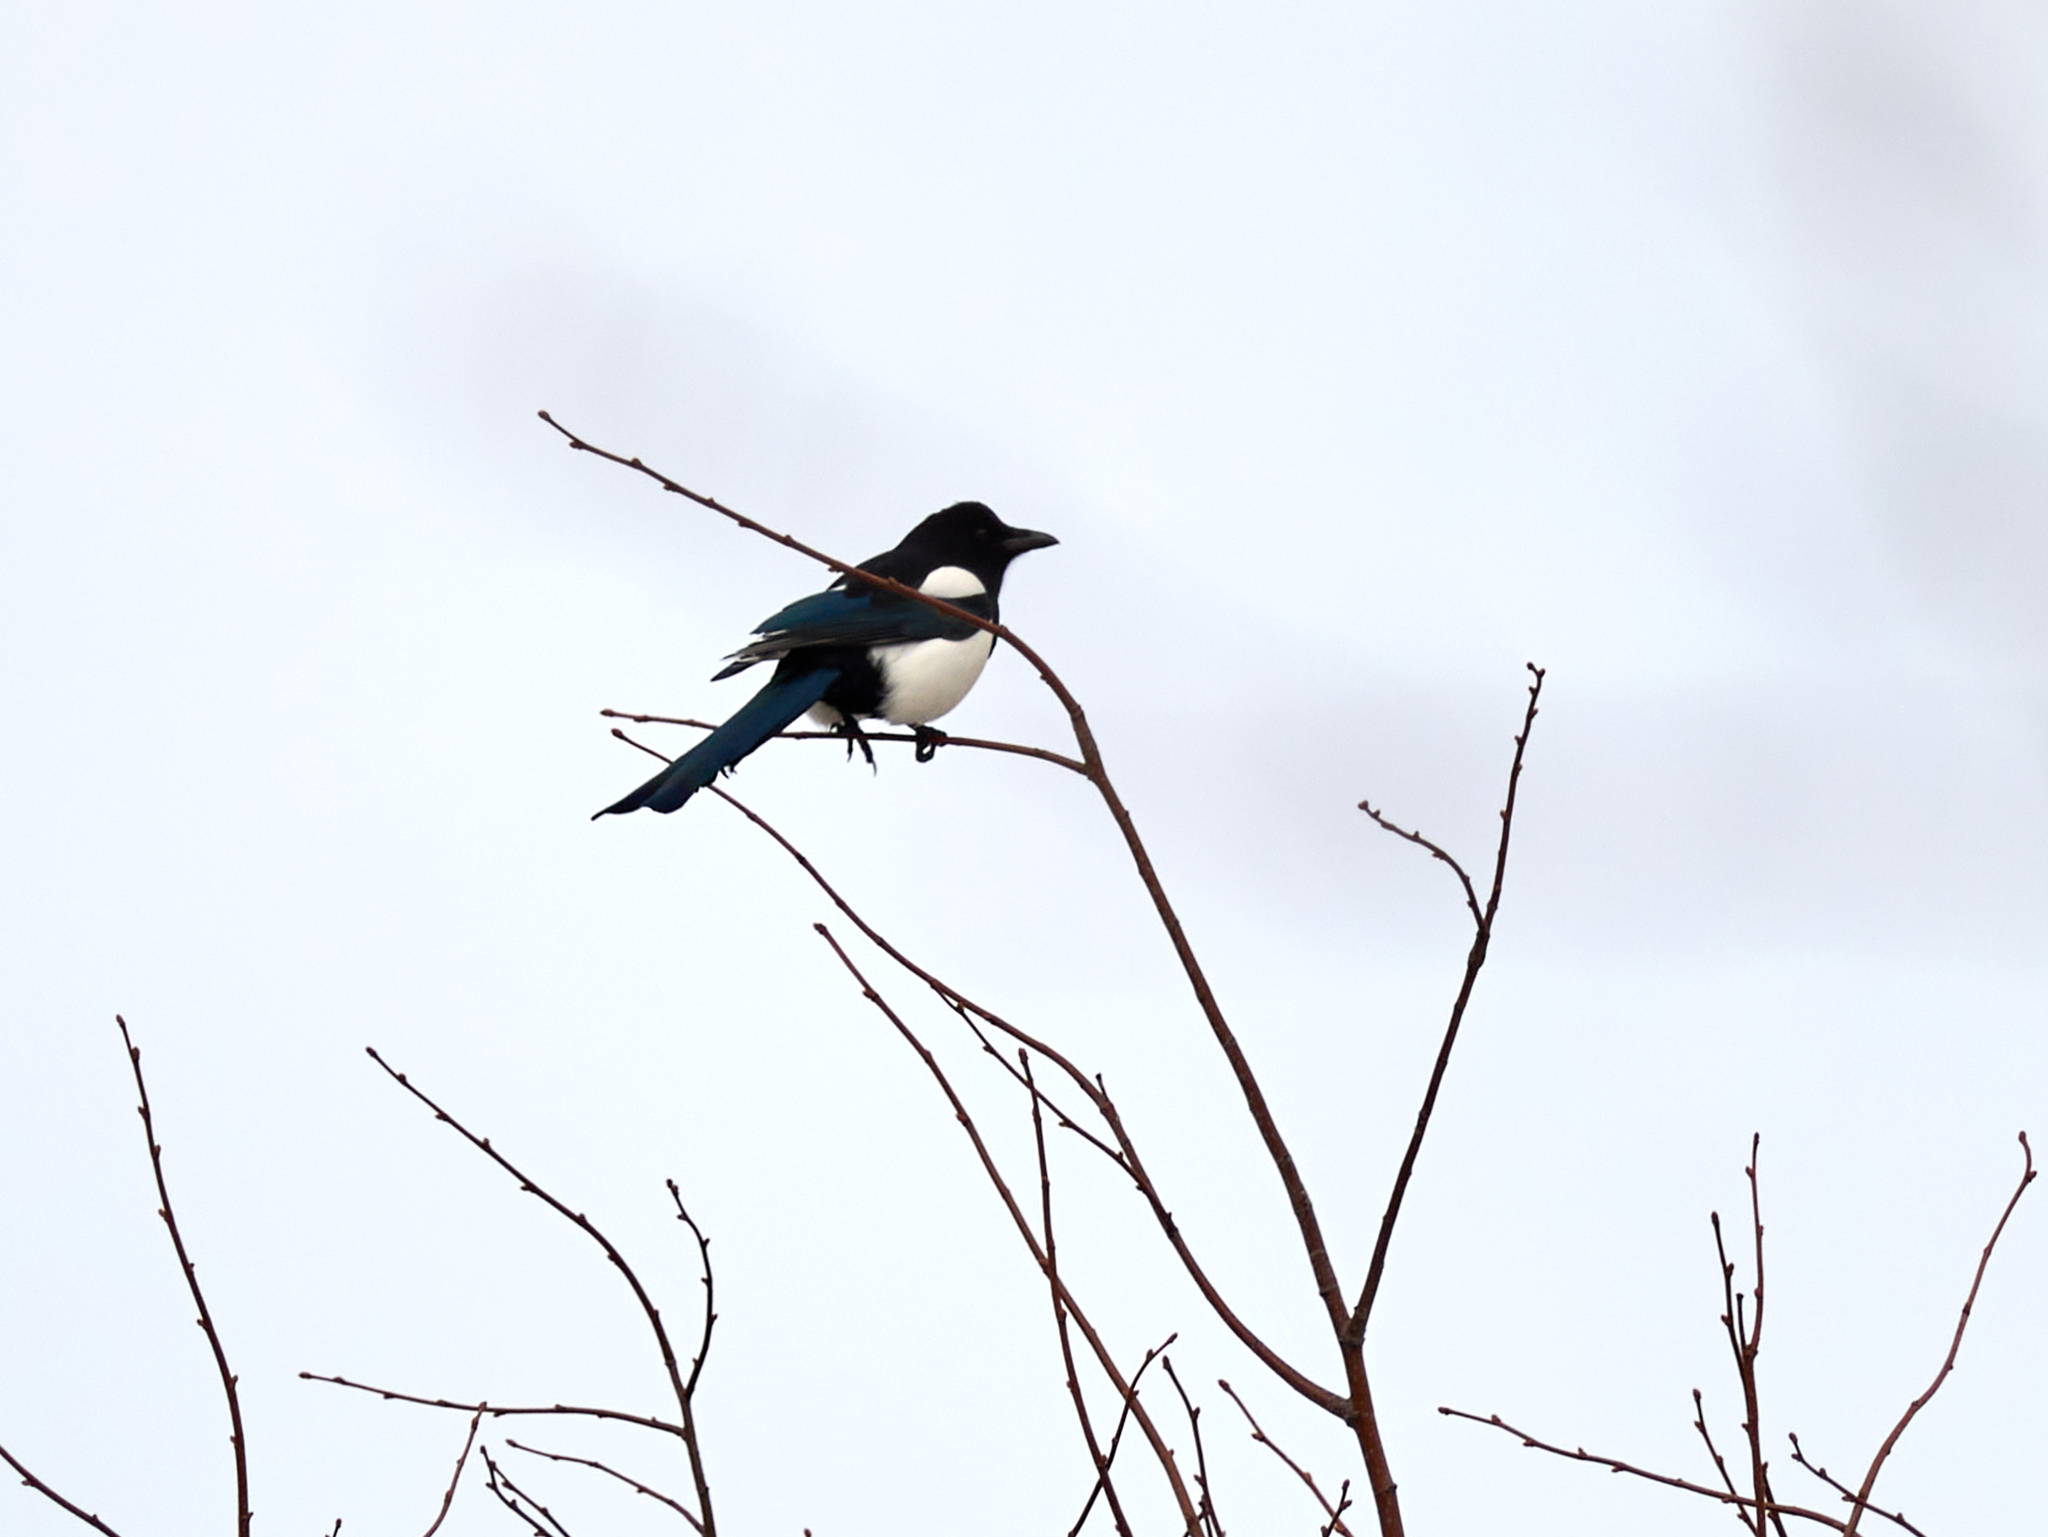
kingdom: Animalia
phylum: Chordata
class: Aves
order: Passeriformes
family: Corvidae
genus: Pica
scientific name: Pica pica
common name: Eurasian magpie
